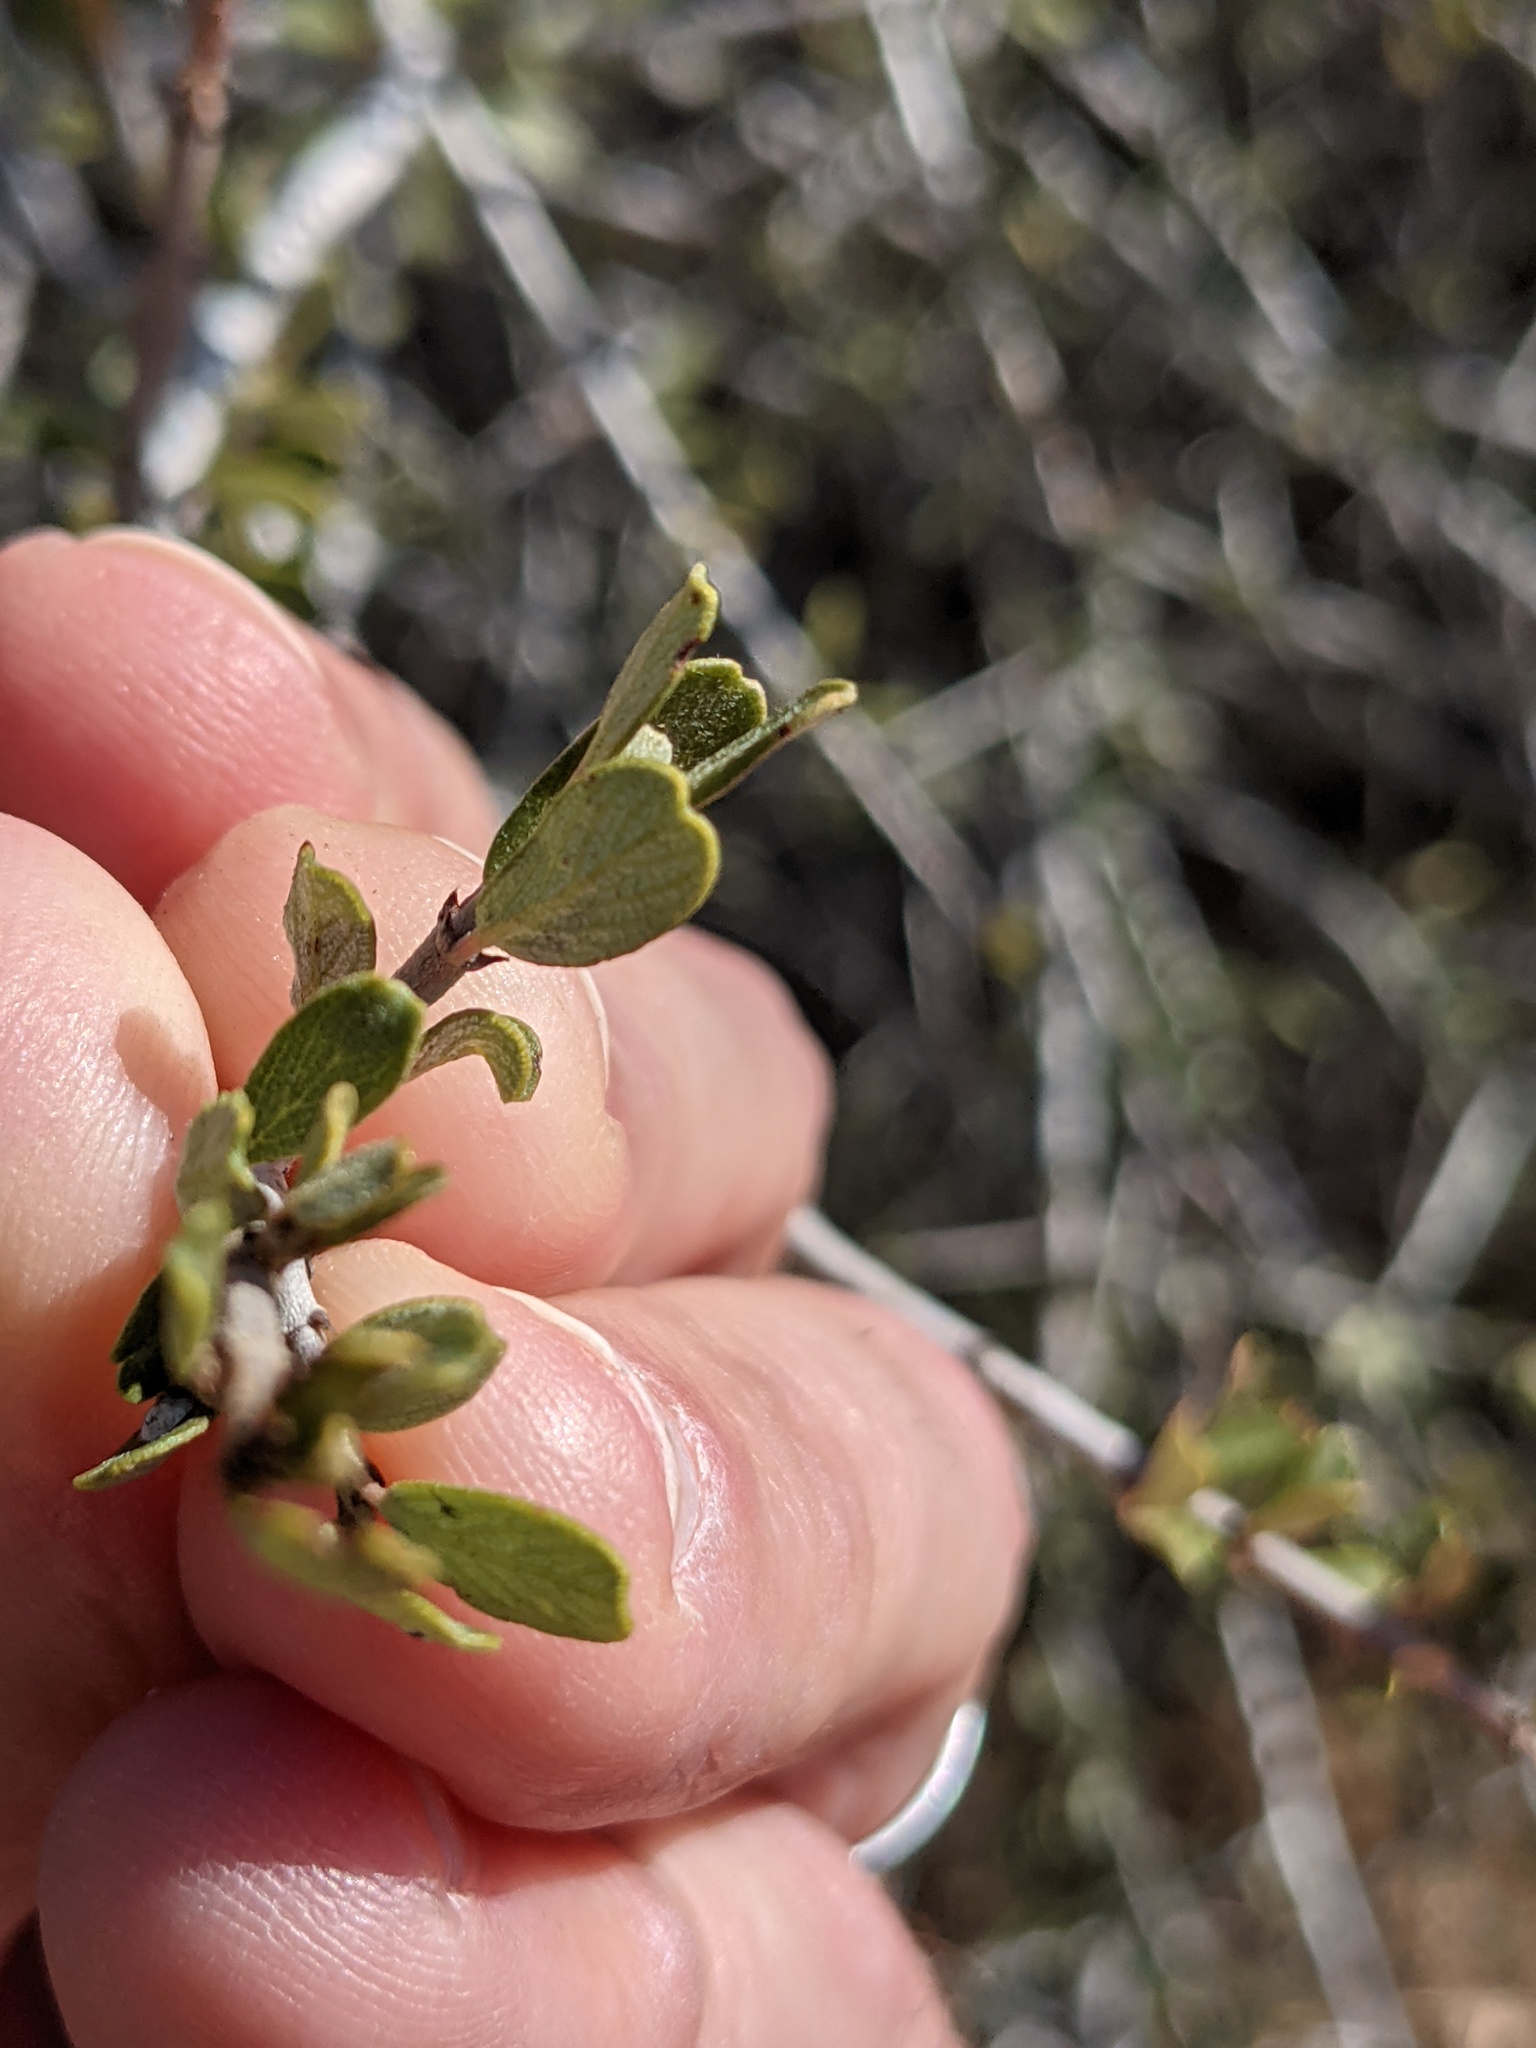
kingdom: Plantae
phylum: Tracheophyta
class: Magnoliopsida
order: Rosales
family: Rhamnaceae
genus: Ceanothus
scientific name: Ceanothus cuneatus
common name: Cuneate ceanothus
